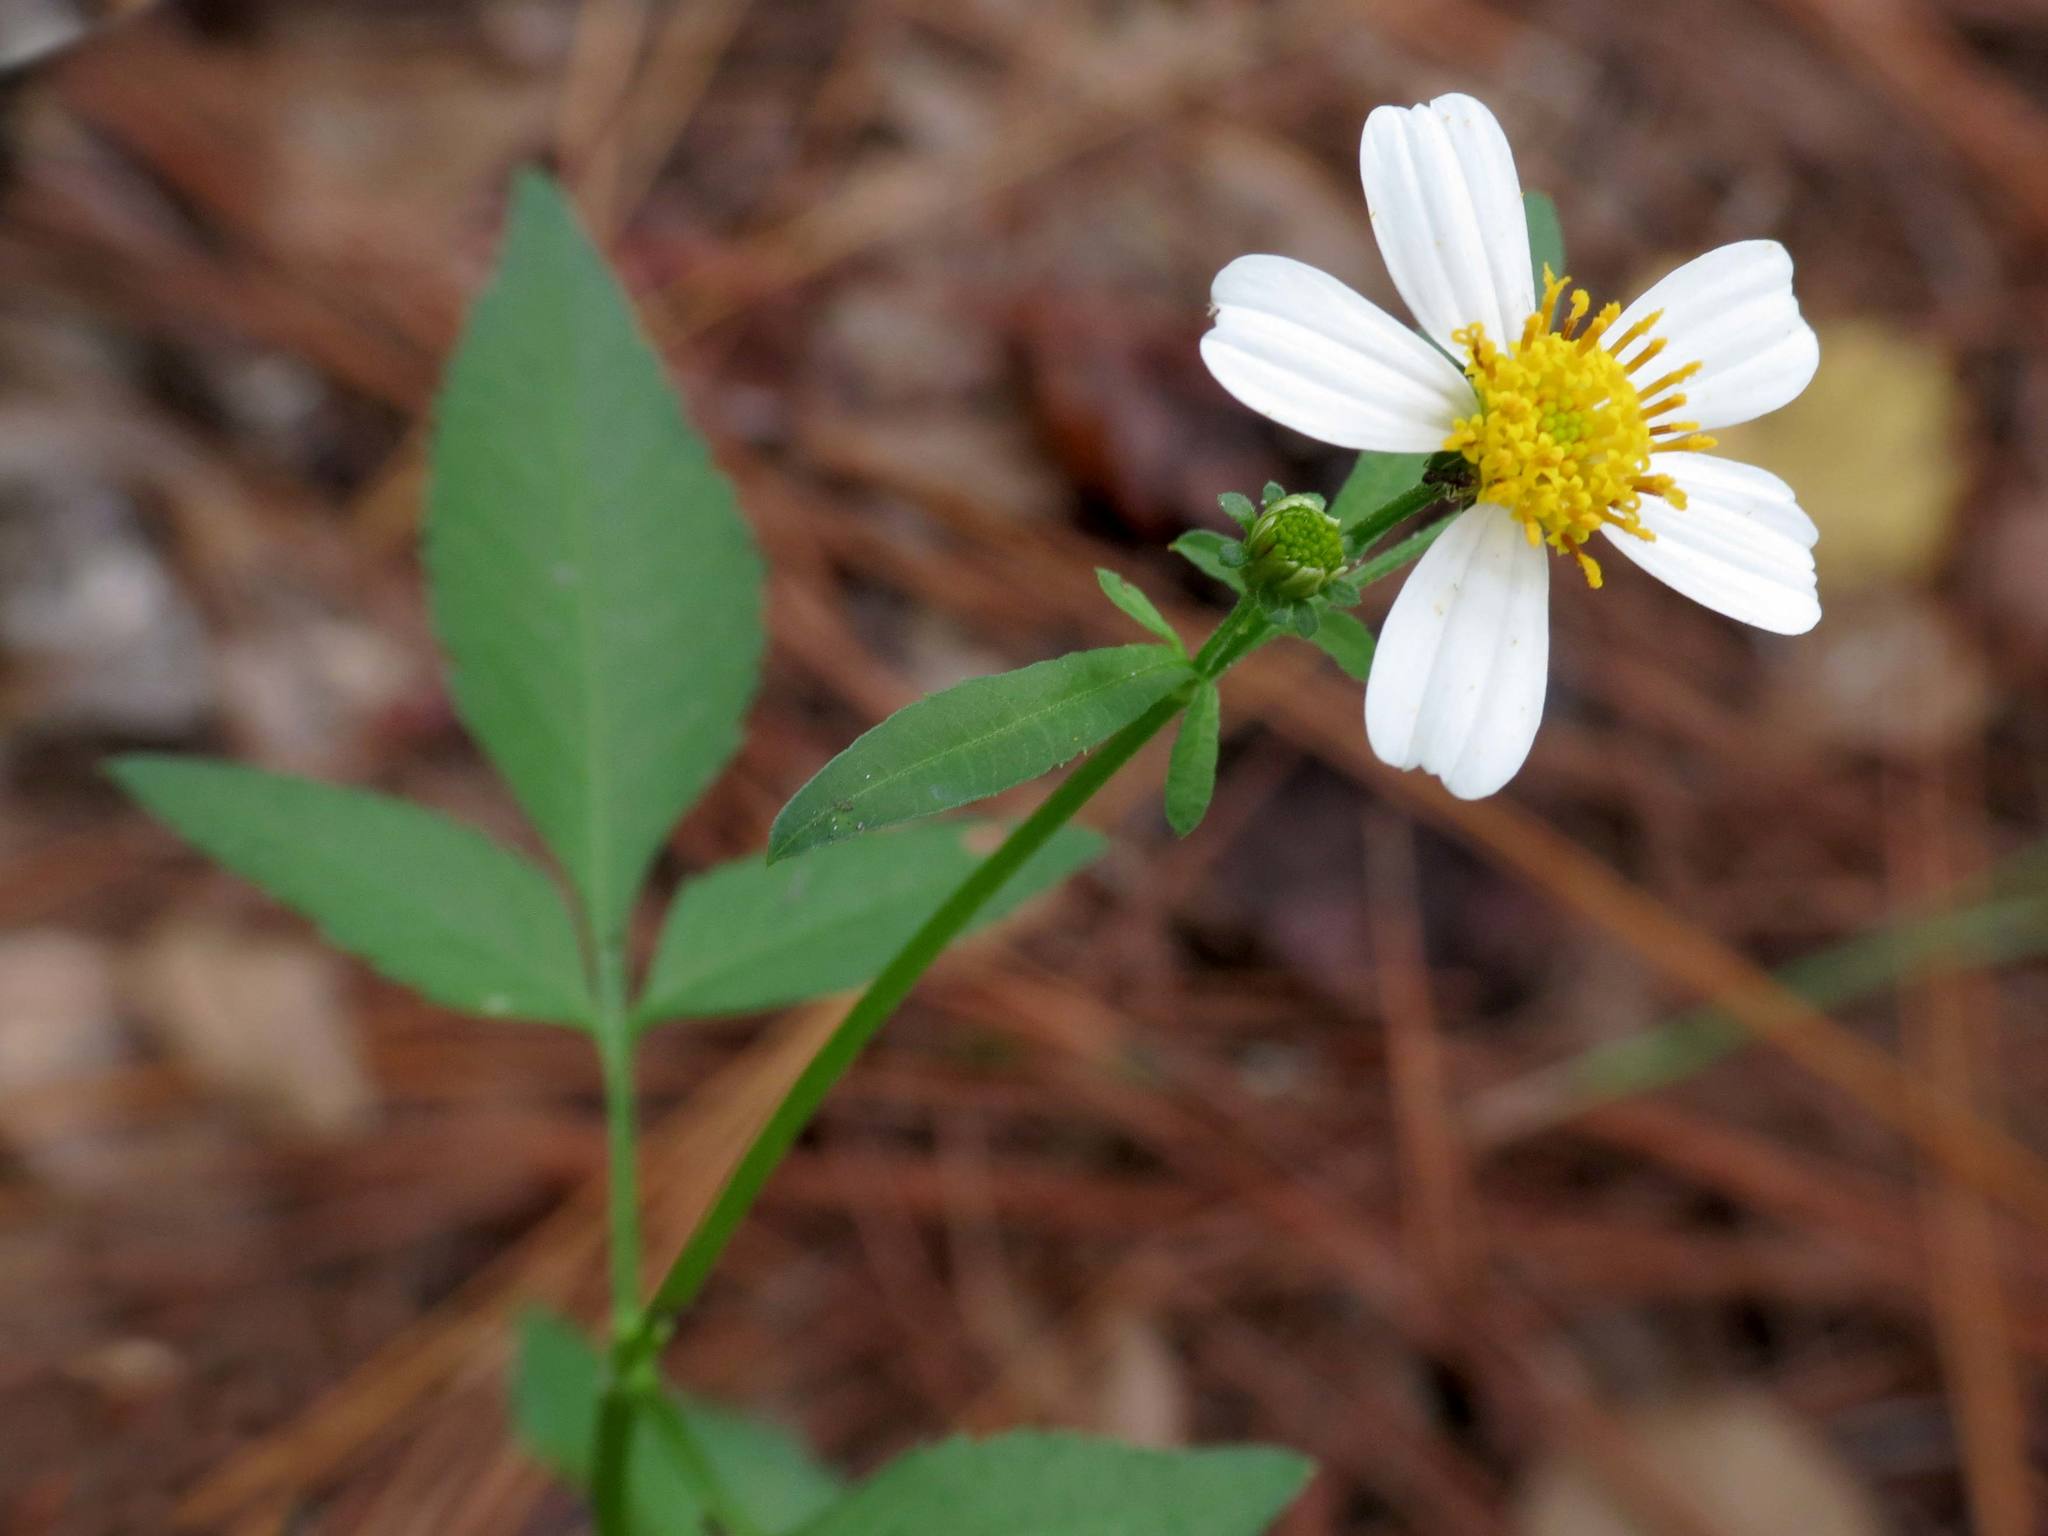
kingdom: Plantae
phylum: Tracheophyta
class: Magnoliopsida
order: Asterales
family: Asteraceae
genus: Bidens
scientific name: Bidens alba
